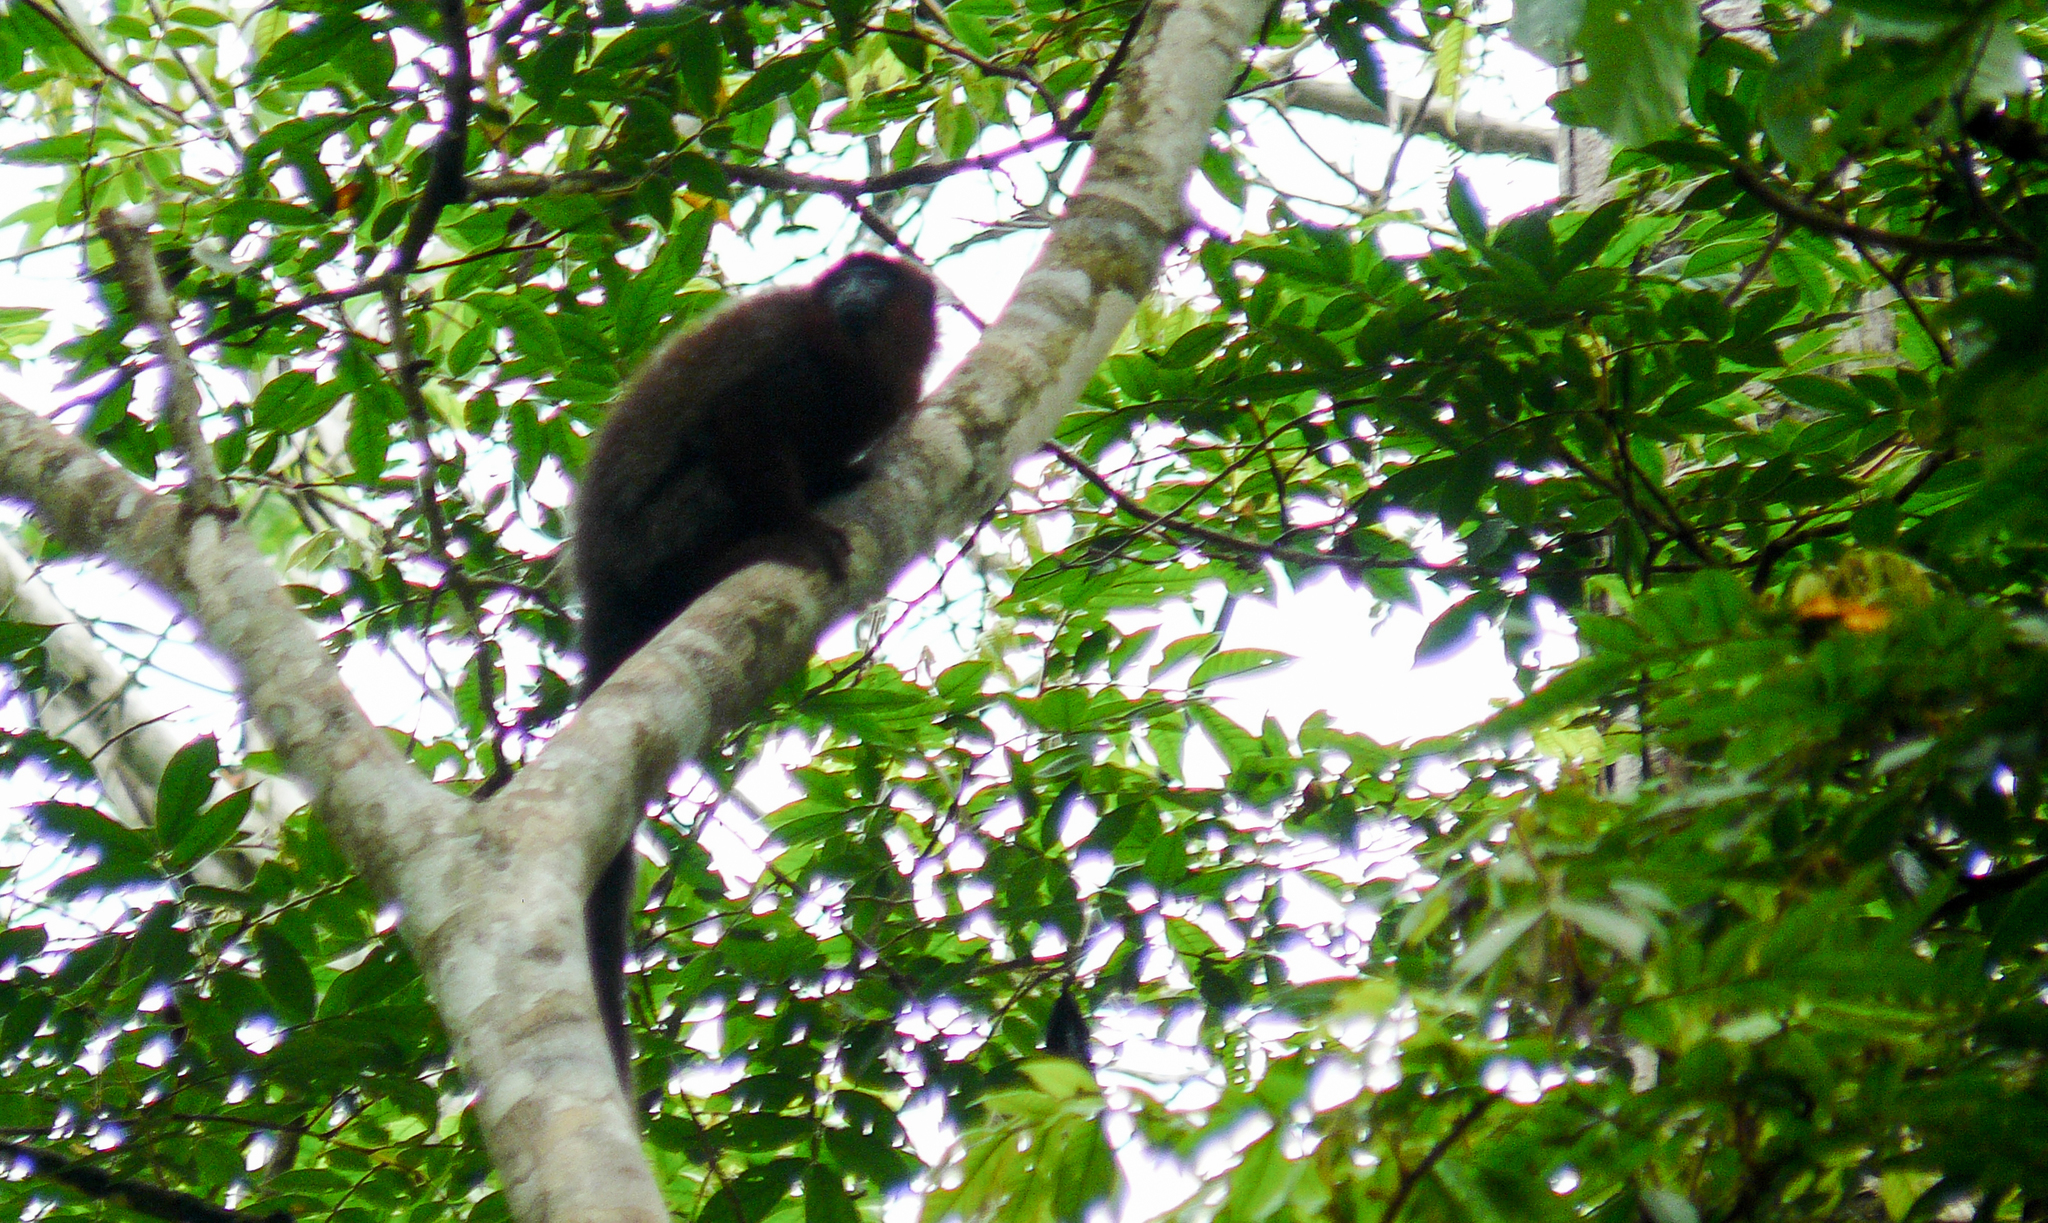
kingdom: Animalia
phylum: Chordata
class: Mammalia
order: Primates
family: Pitheciidae
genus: Plecturocebus
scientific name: Plecturocebus toppini
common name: Toppin's titi
